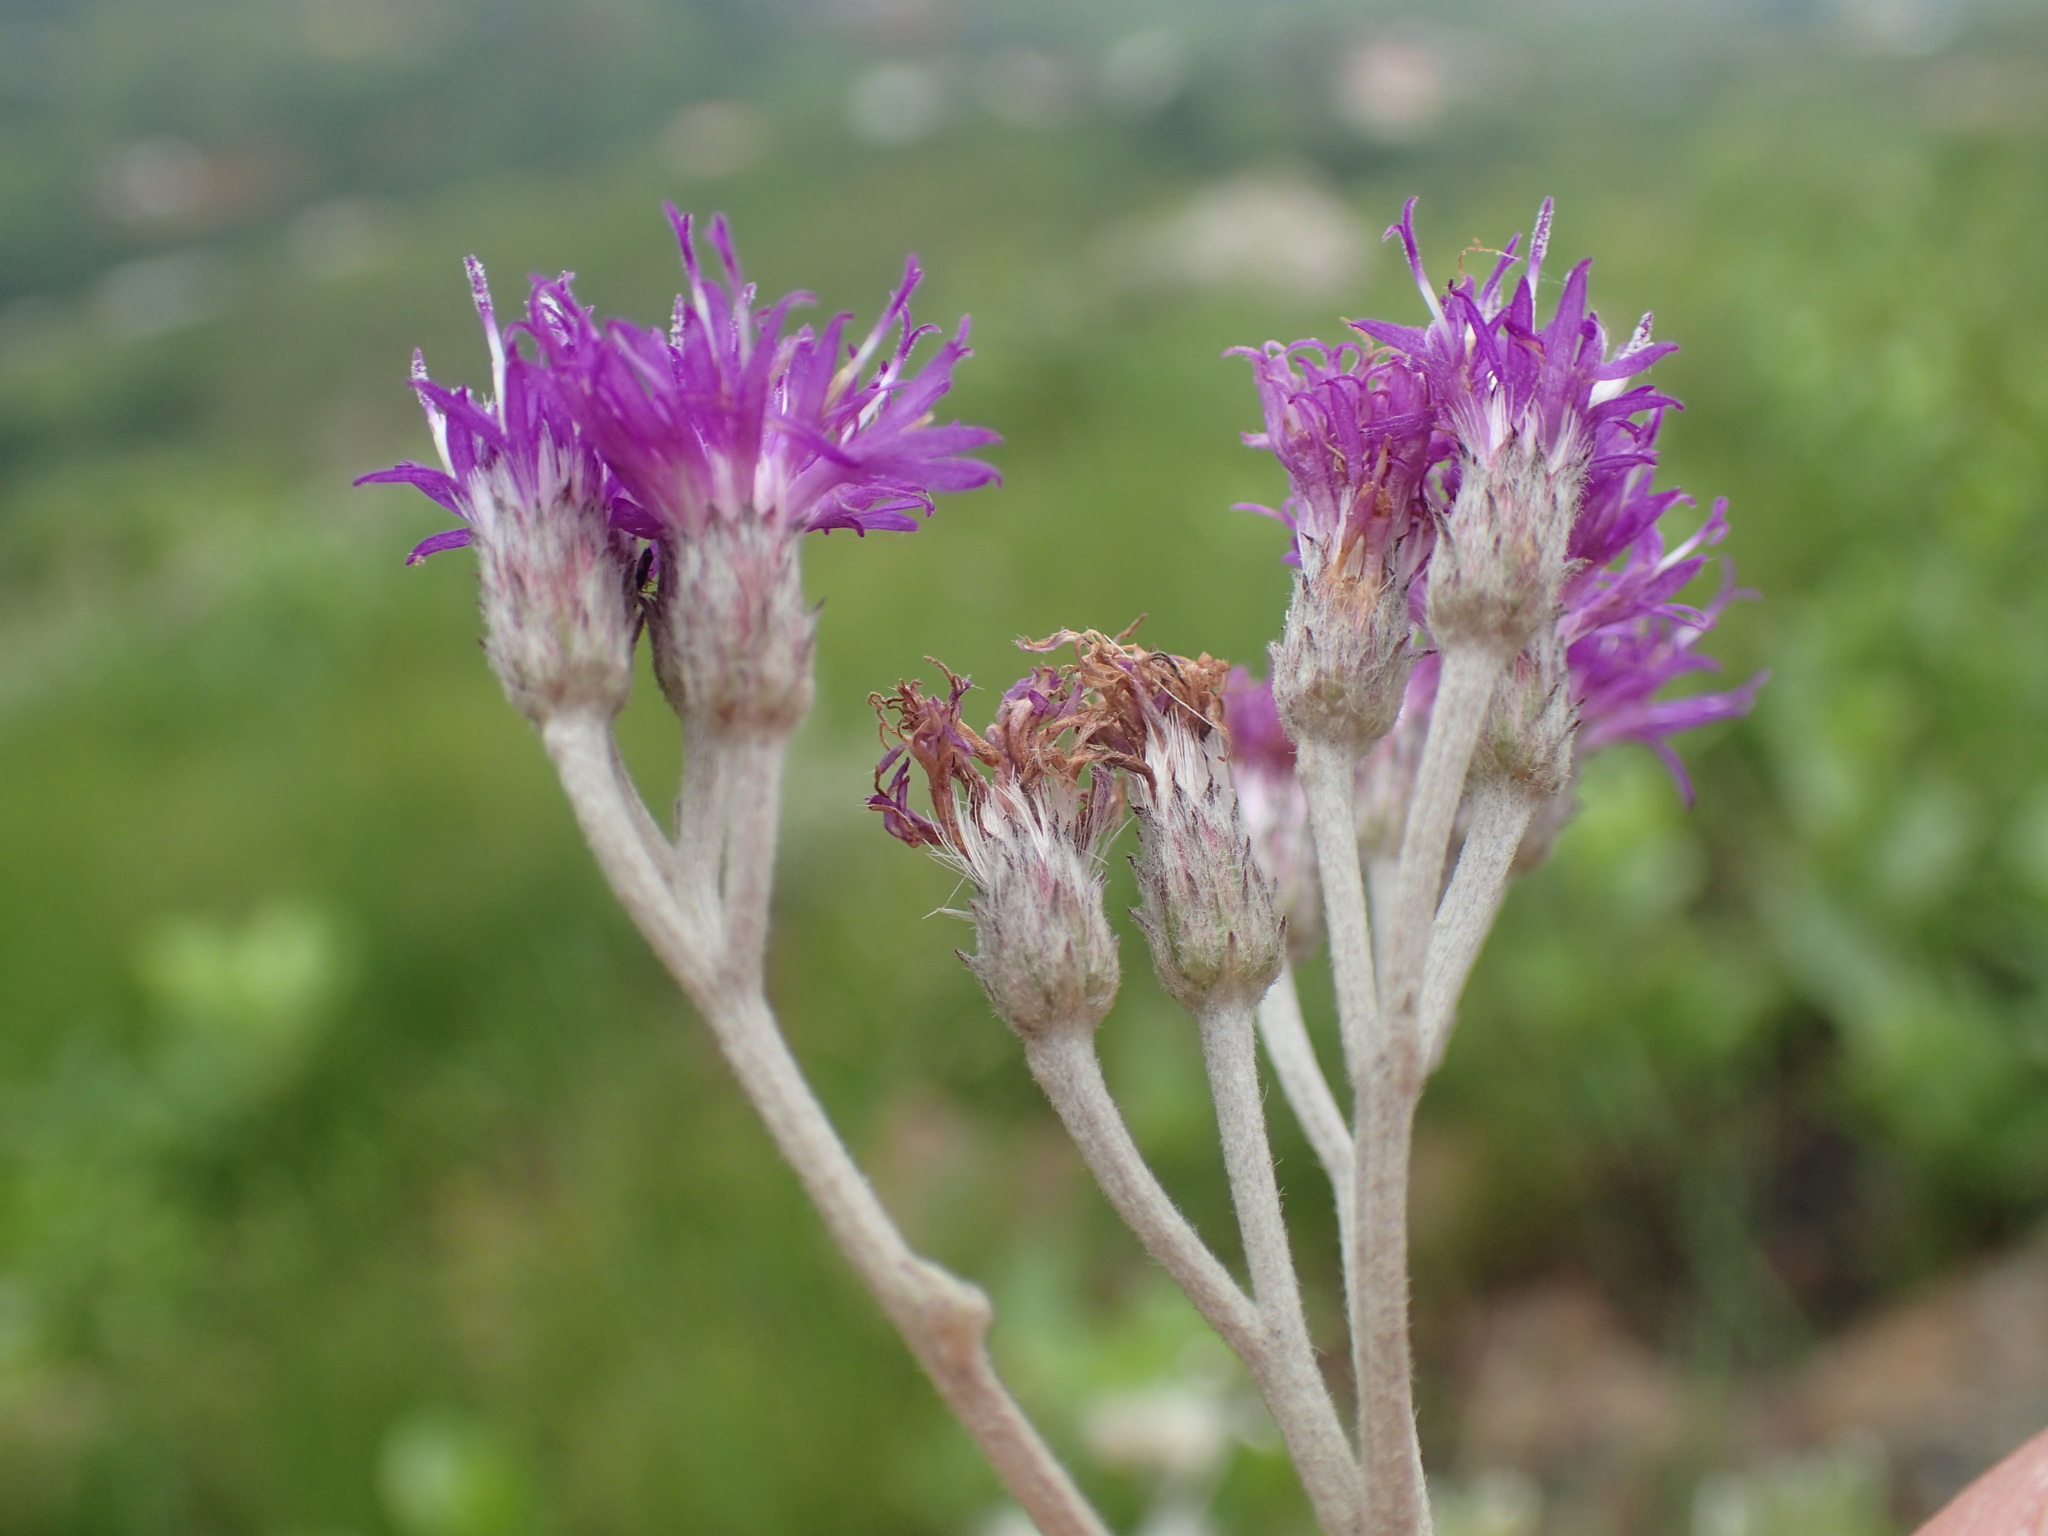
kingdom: Plantae
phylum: Tracheophyta
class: Magnoliopsida
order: Asterales
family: Asteraceae
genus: Hilliardiella
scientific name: Hilliardiella aristata
